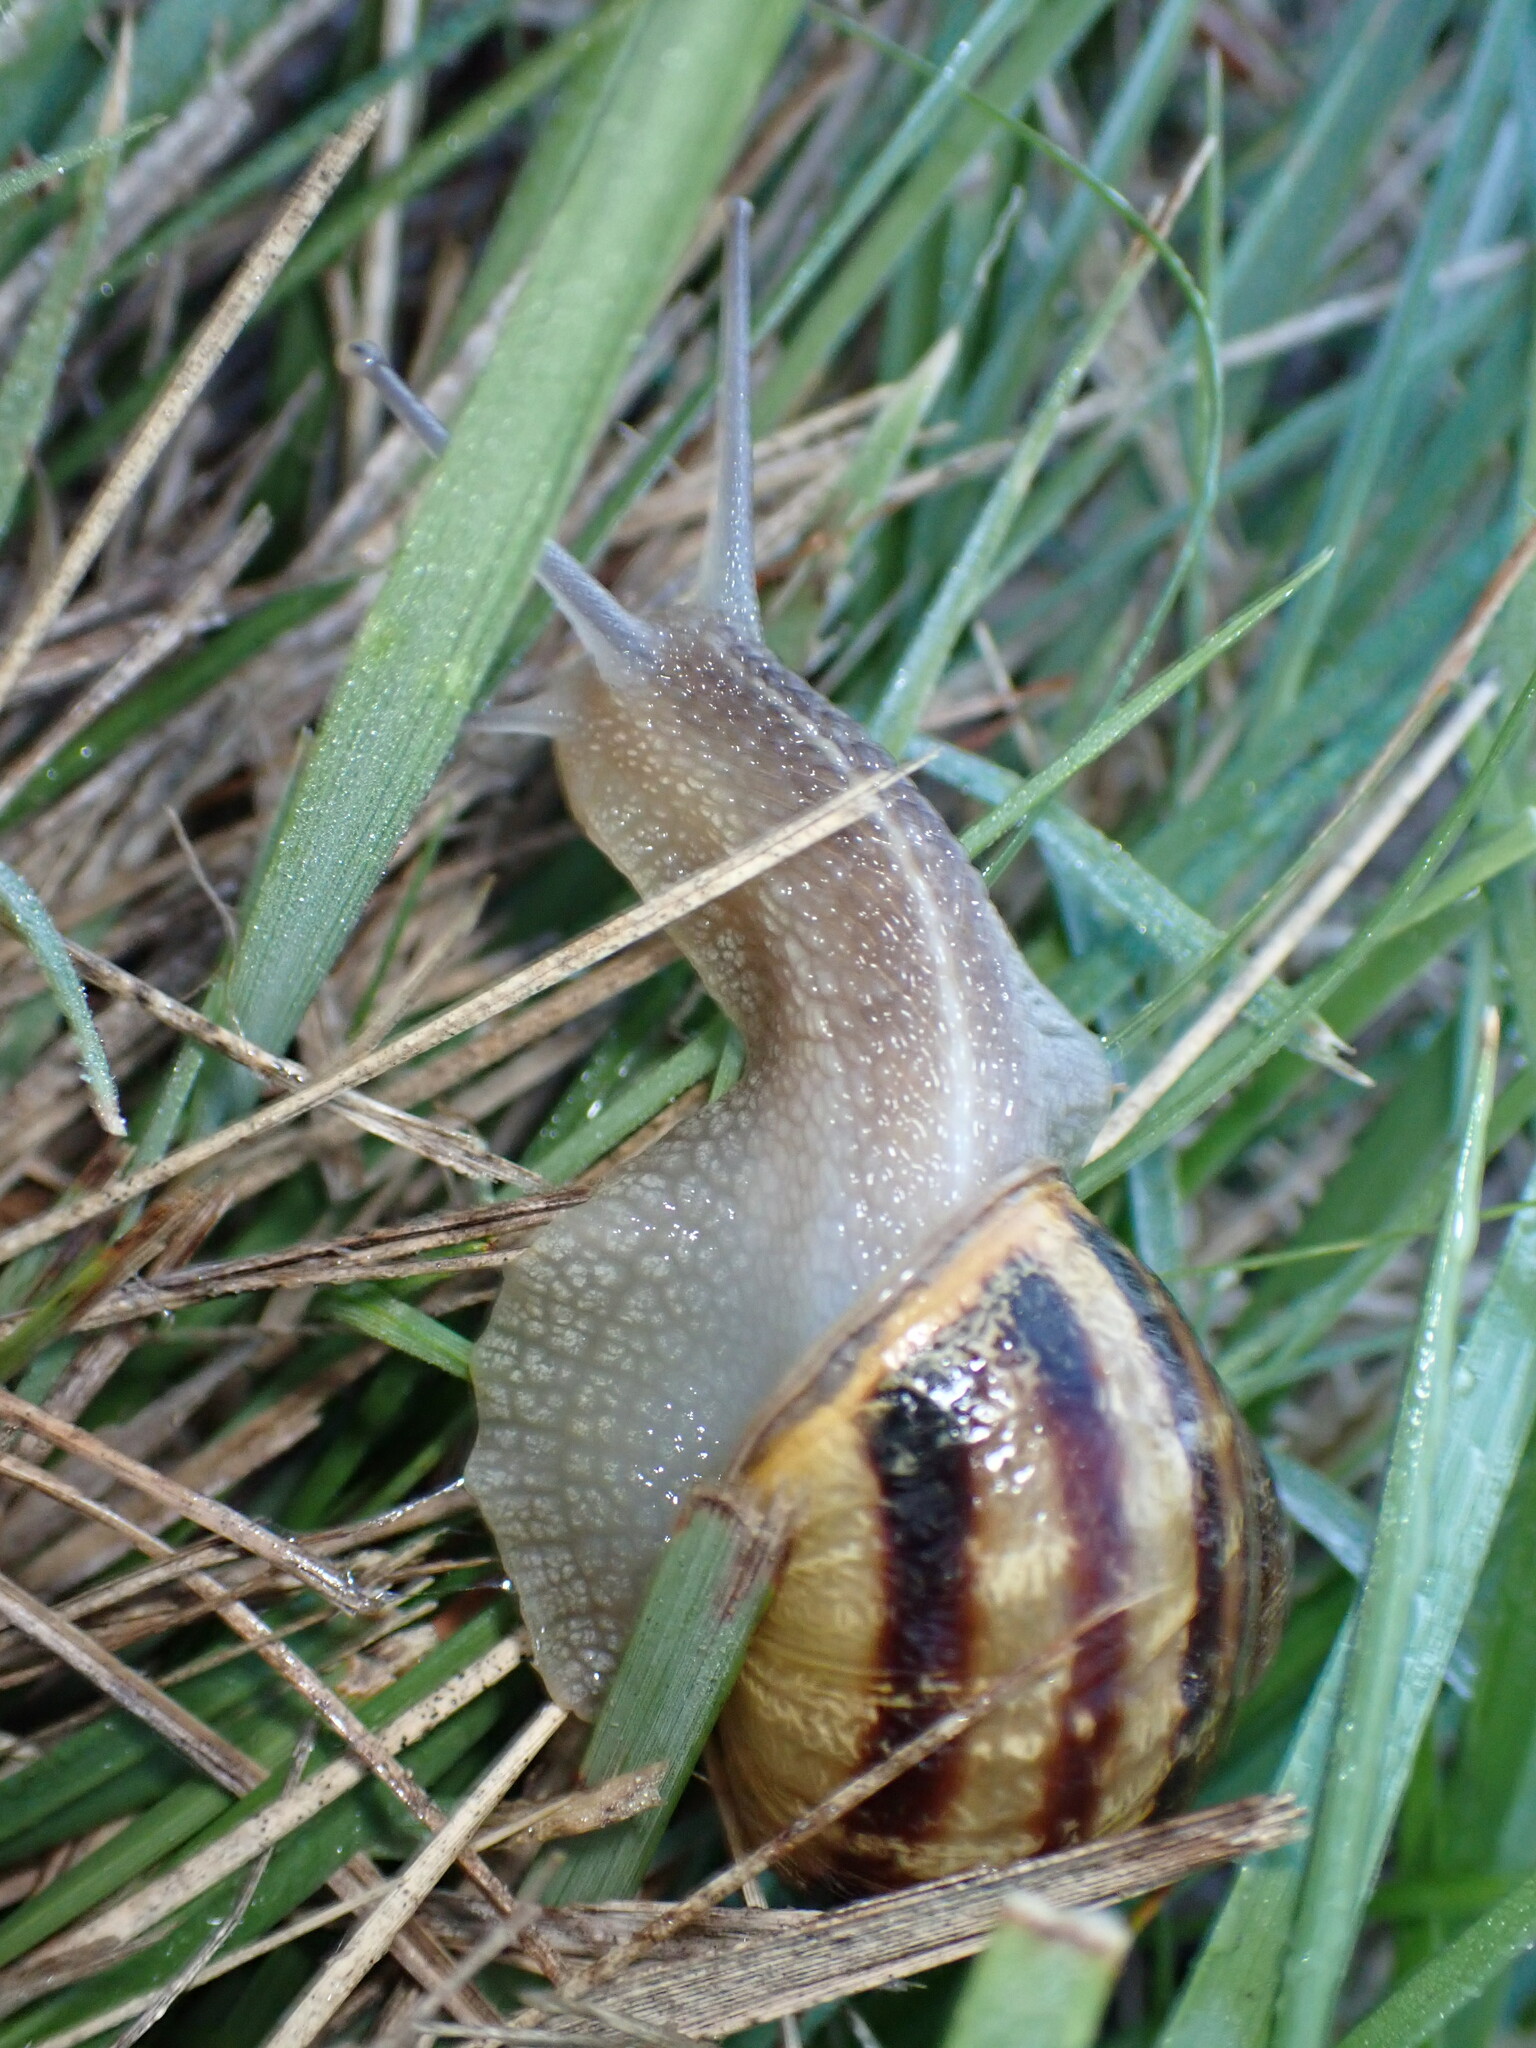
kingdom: Animalia
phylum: Mollusca
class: Gastropoda
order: Stylommatophora
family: Helicidae
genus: Cornu
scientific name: Cornu aspersum
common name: Brown garden snail
